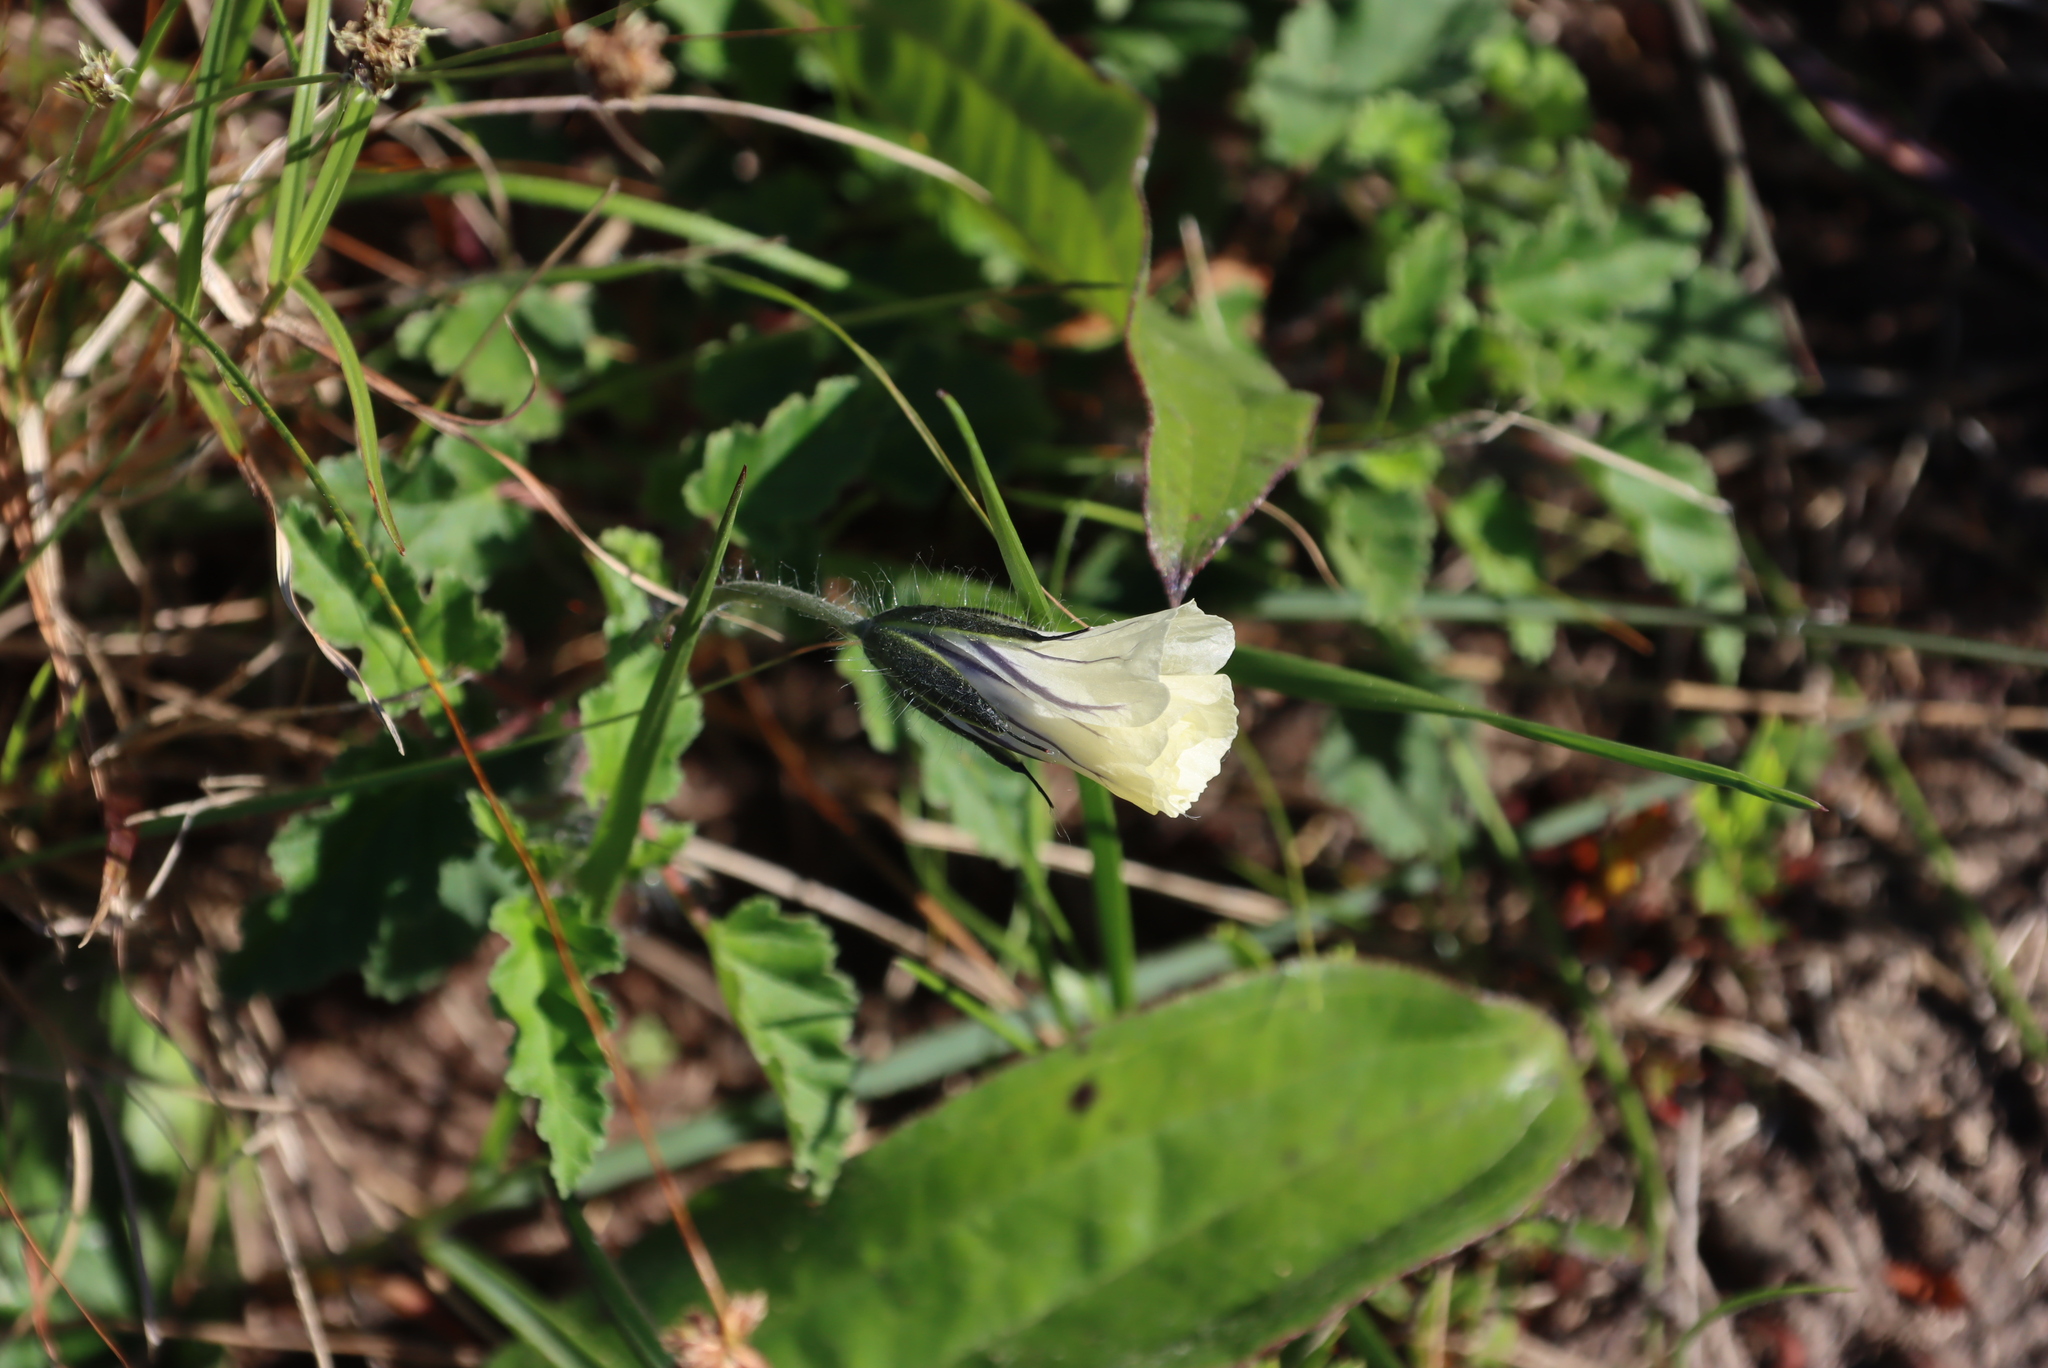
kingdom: Plantae
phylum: Tracheophyta
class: Magnoliopsida
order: Geraniales
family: Geraniaceae
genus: Monsonia
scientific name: Monsonia emarginata
